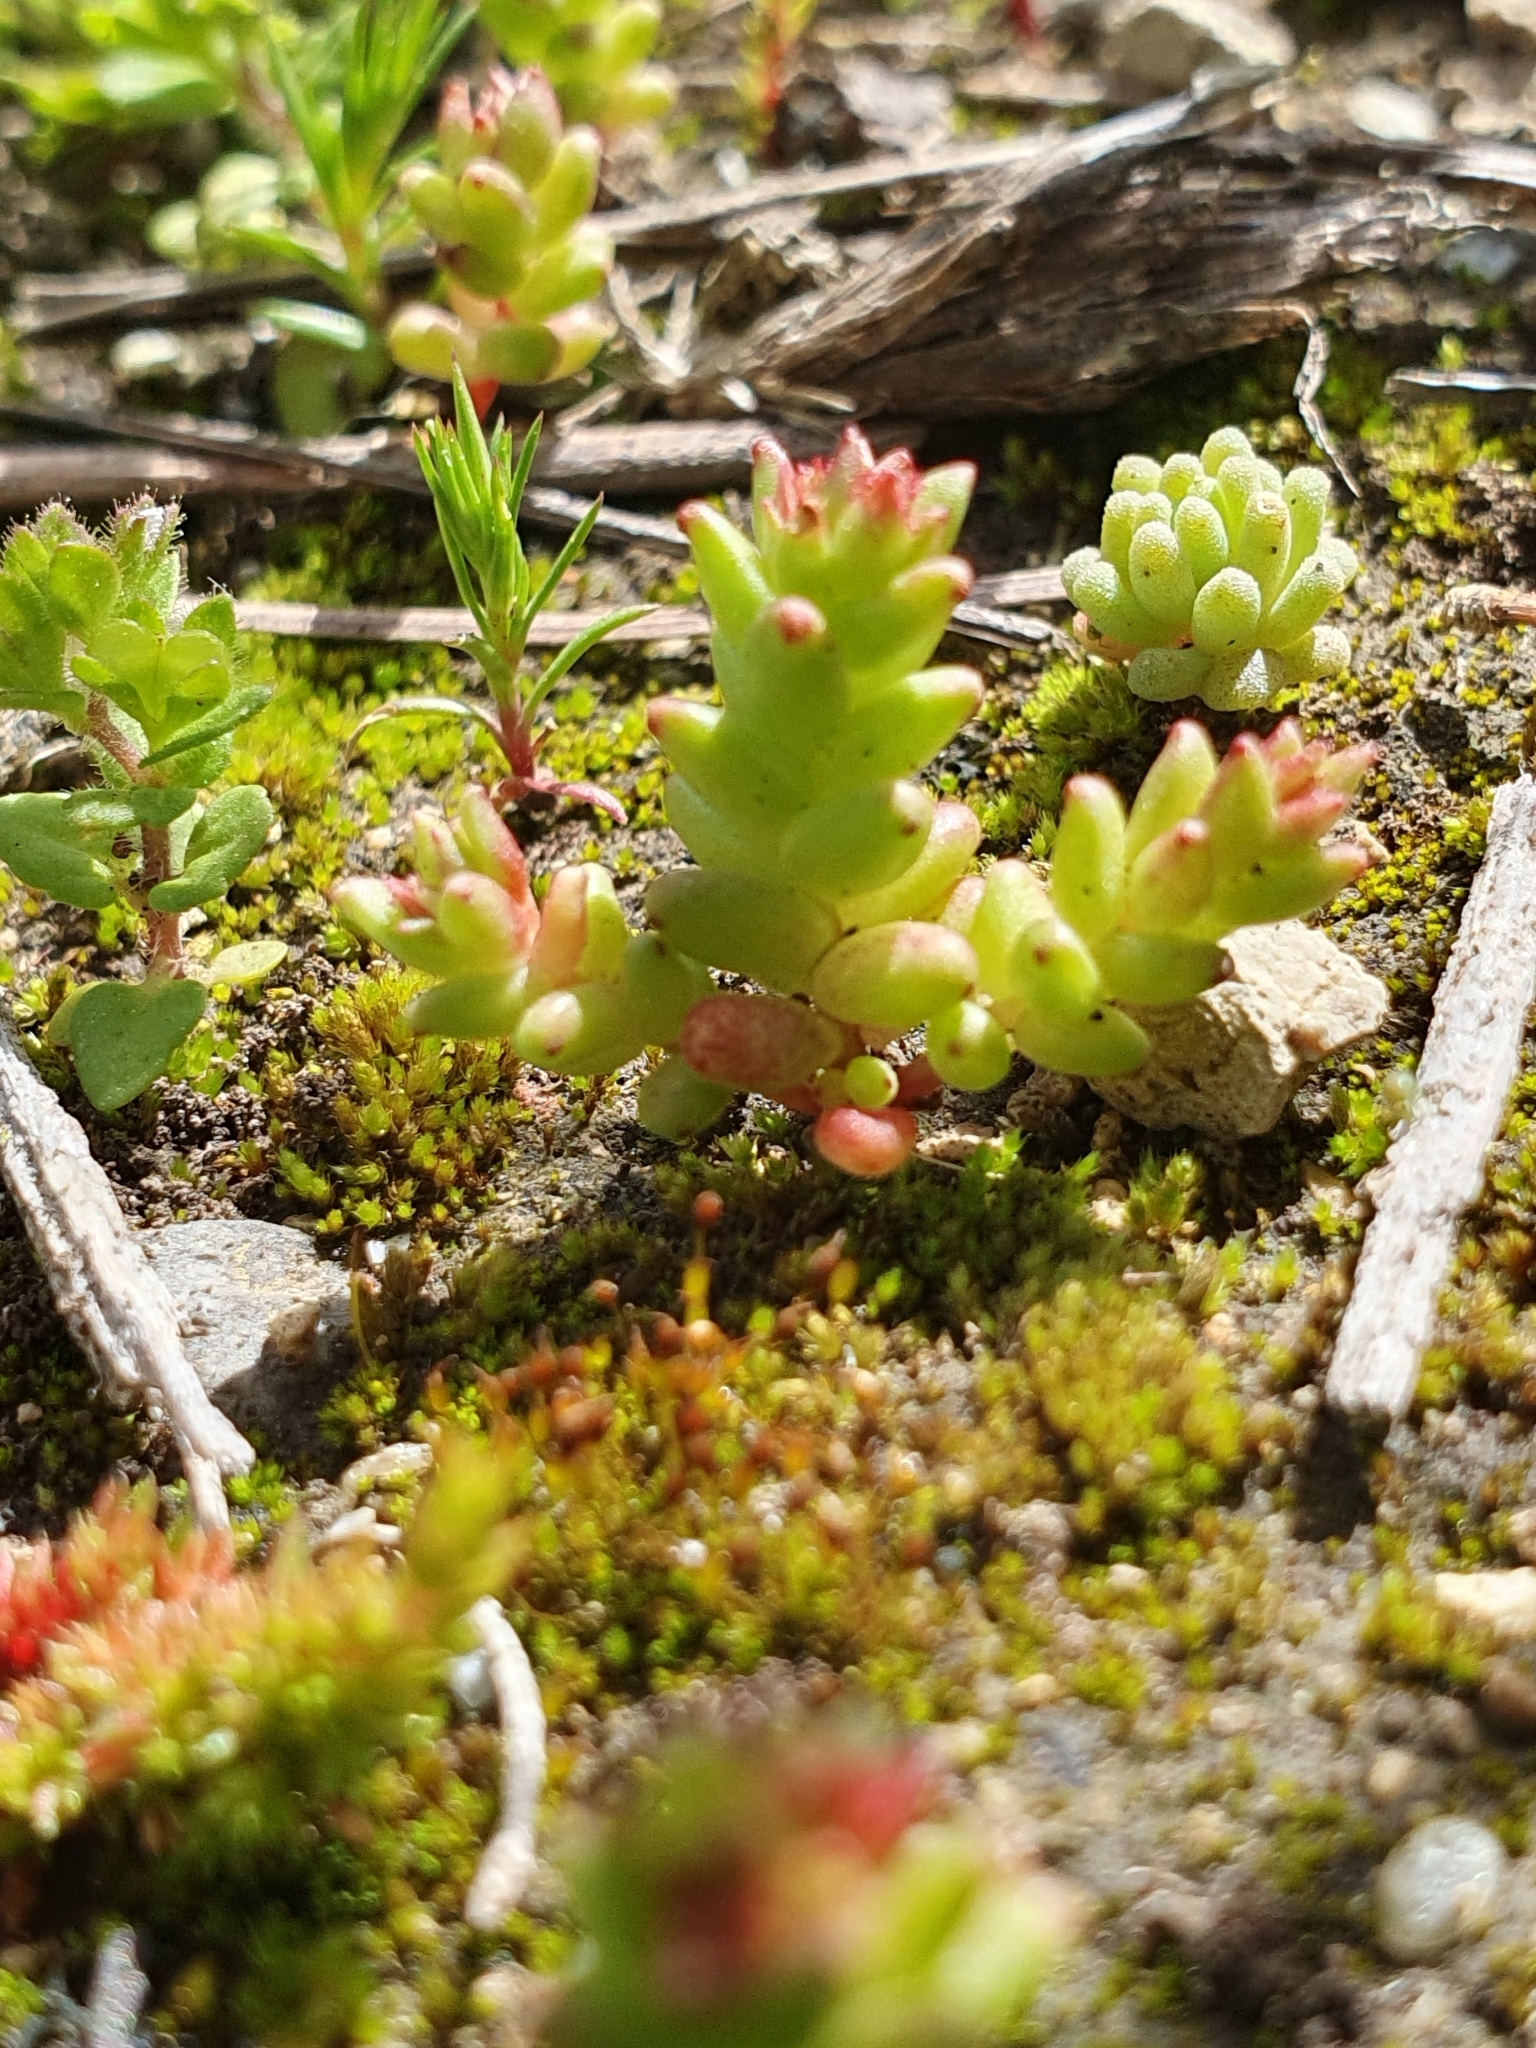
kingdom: Plantae
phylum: Tracheophyta
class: Magnoliopsida
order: Saxifragales
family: Crassulaceae
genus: Sedum
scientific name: Sedum cespitosum
